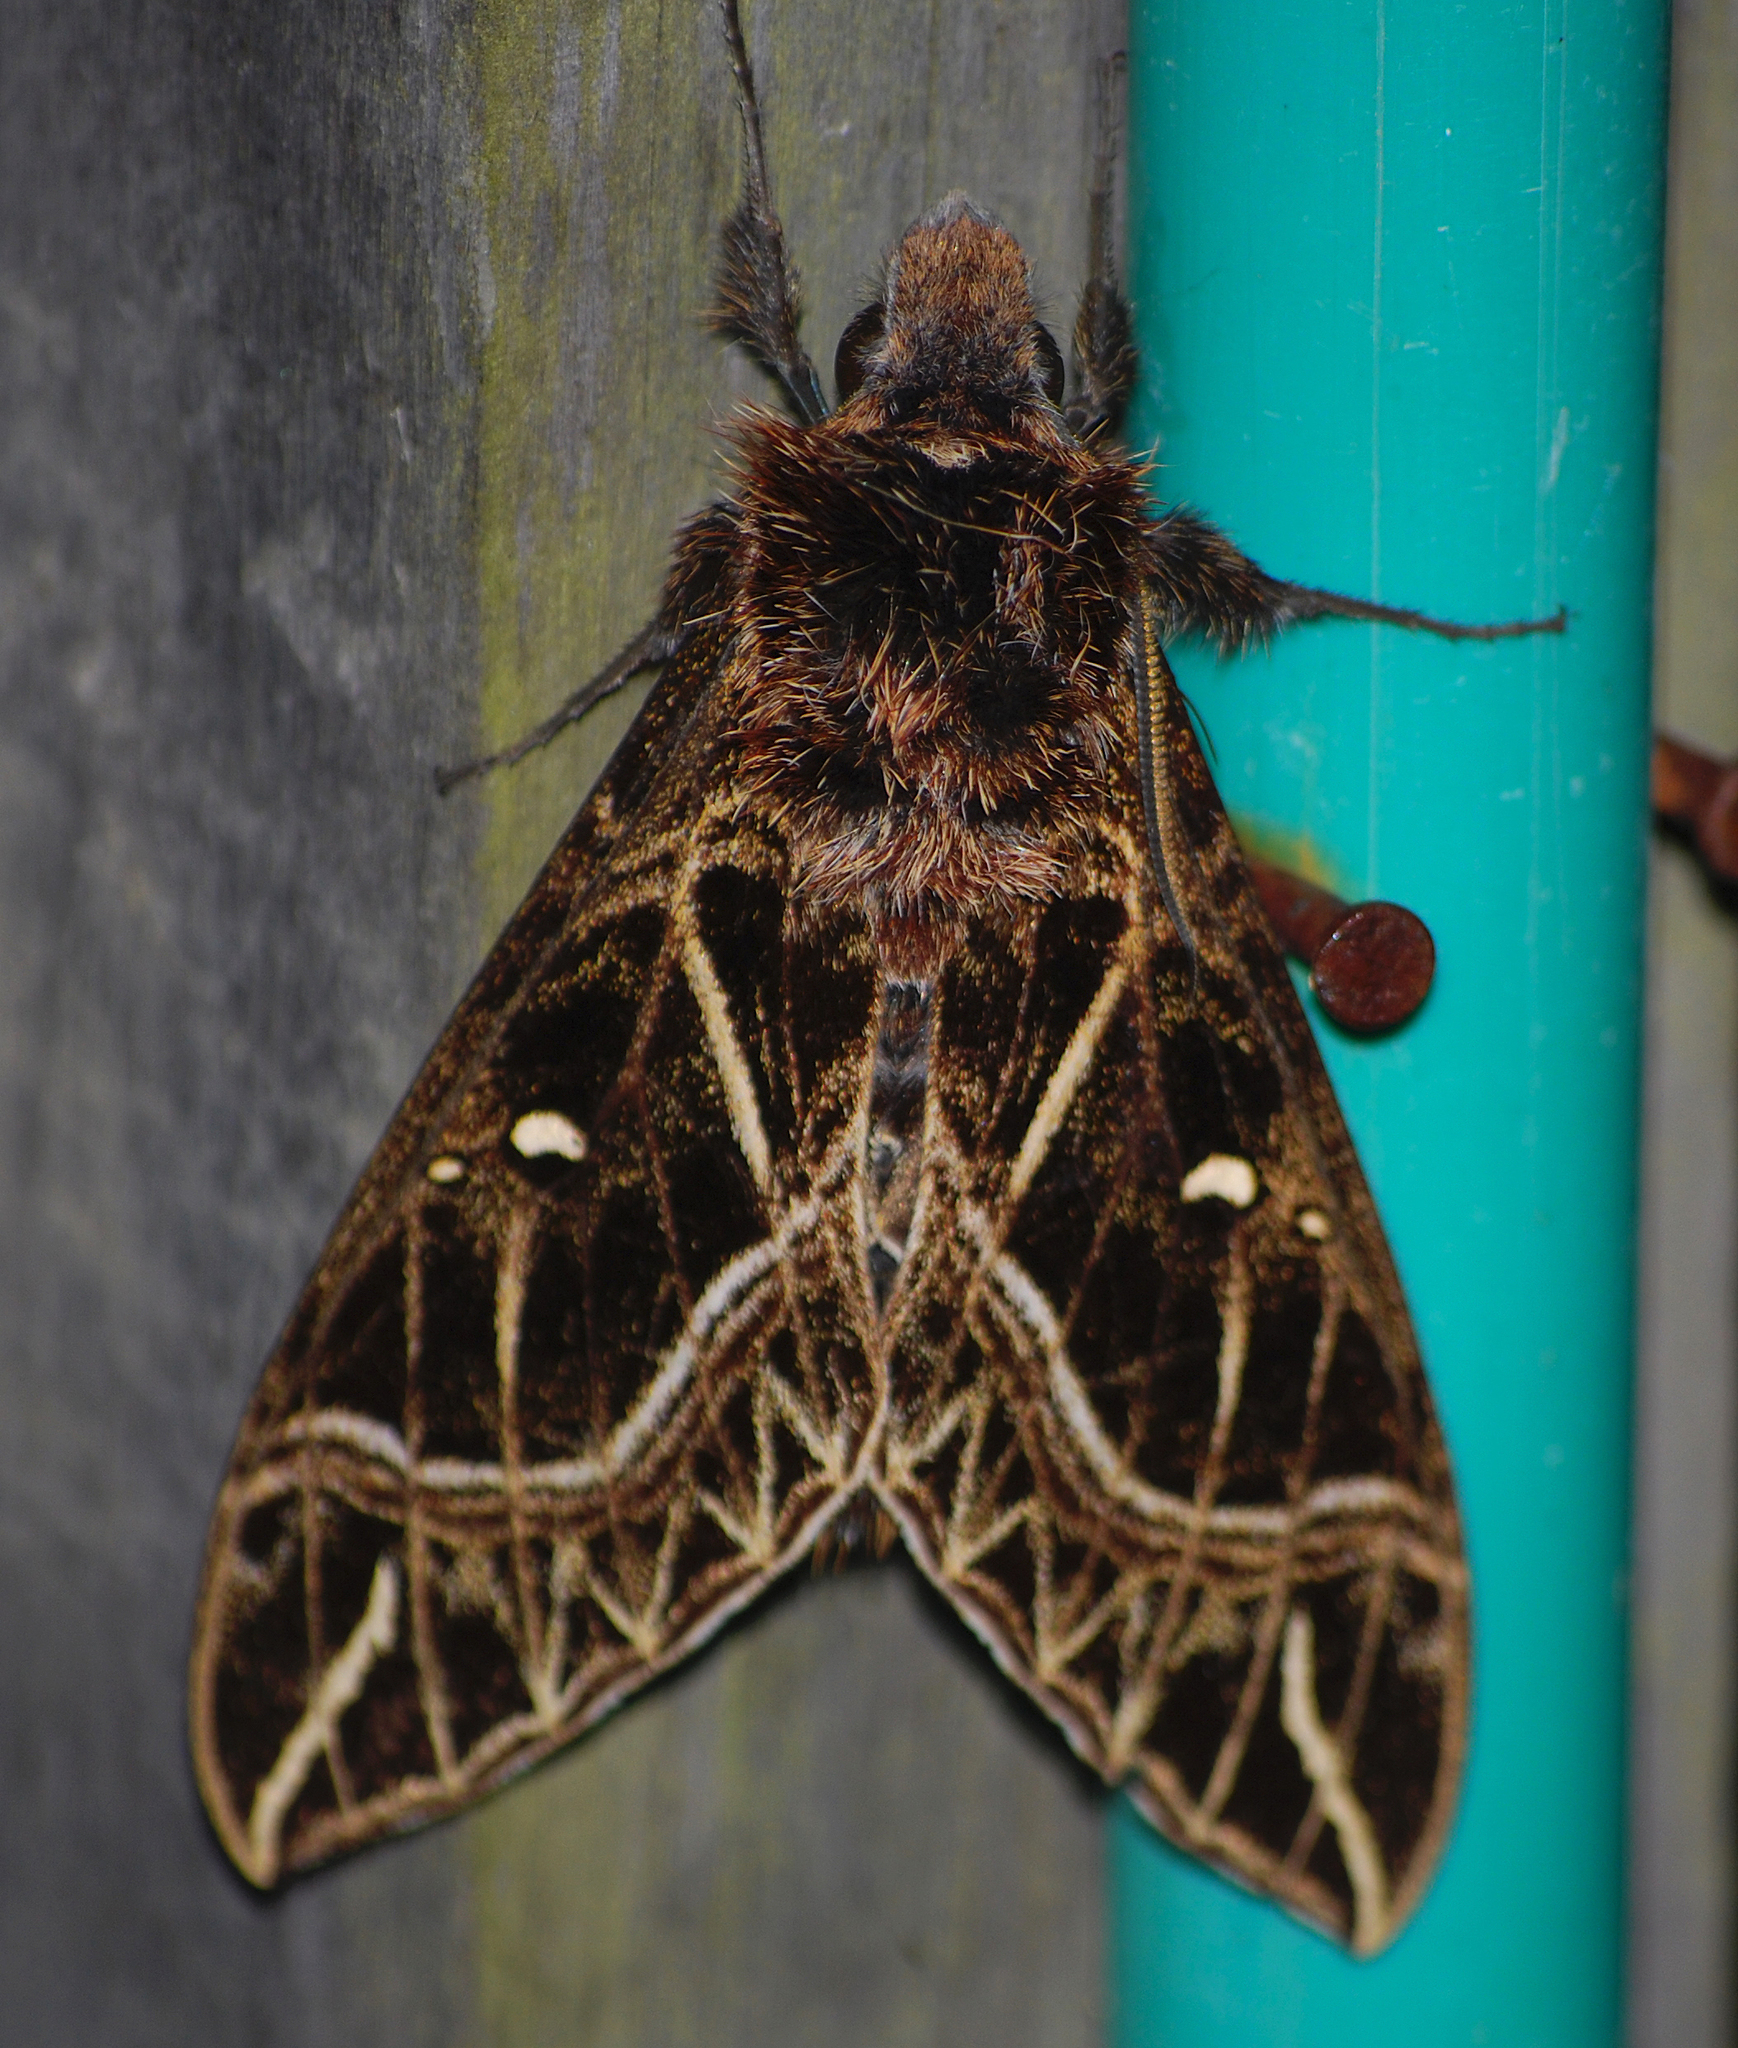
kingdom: Animalia
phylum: Arthropoda
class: Insecta
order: Lepidoptera
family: Sphingidae
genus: Euryglottis
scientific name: Euryglottis aper
